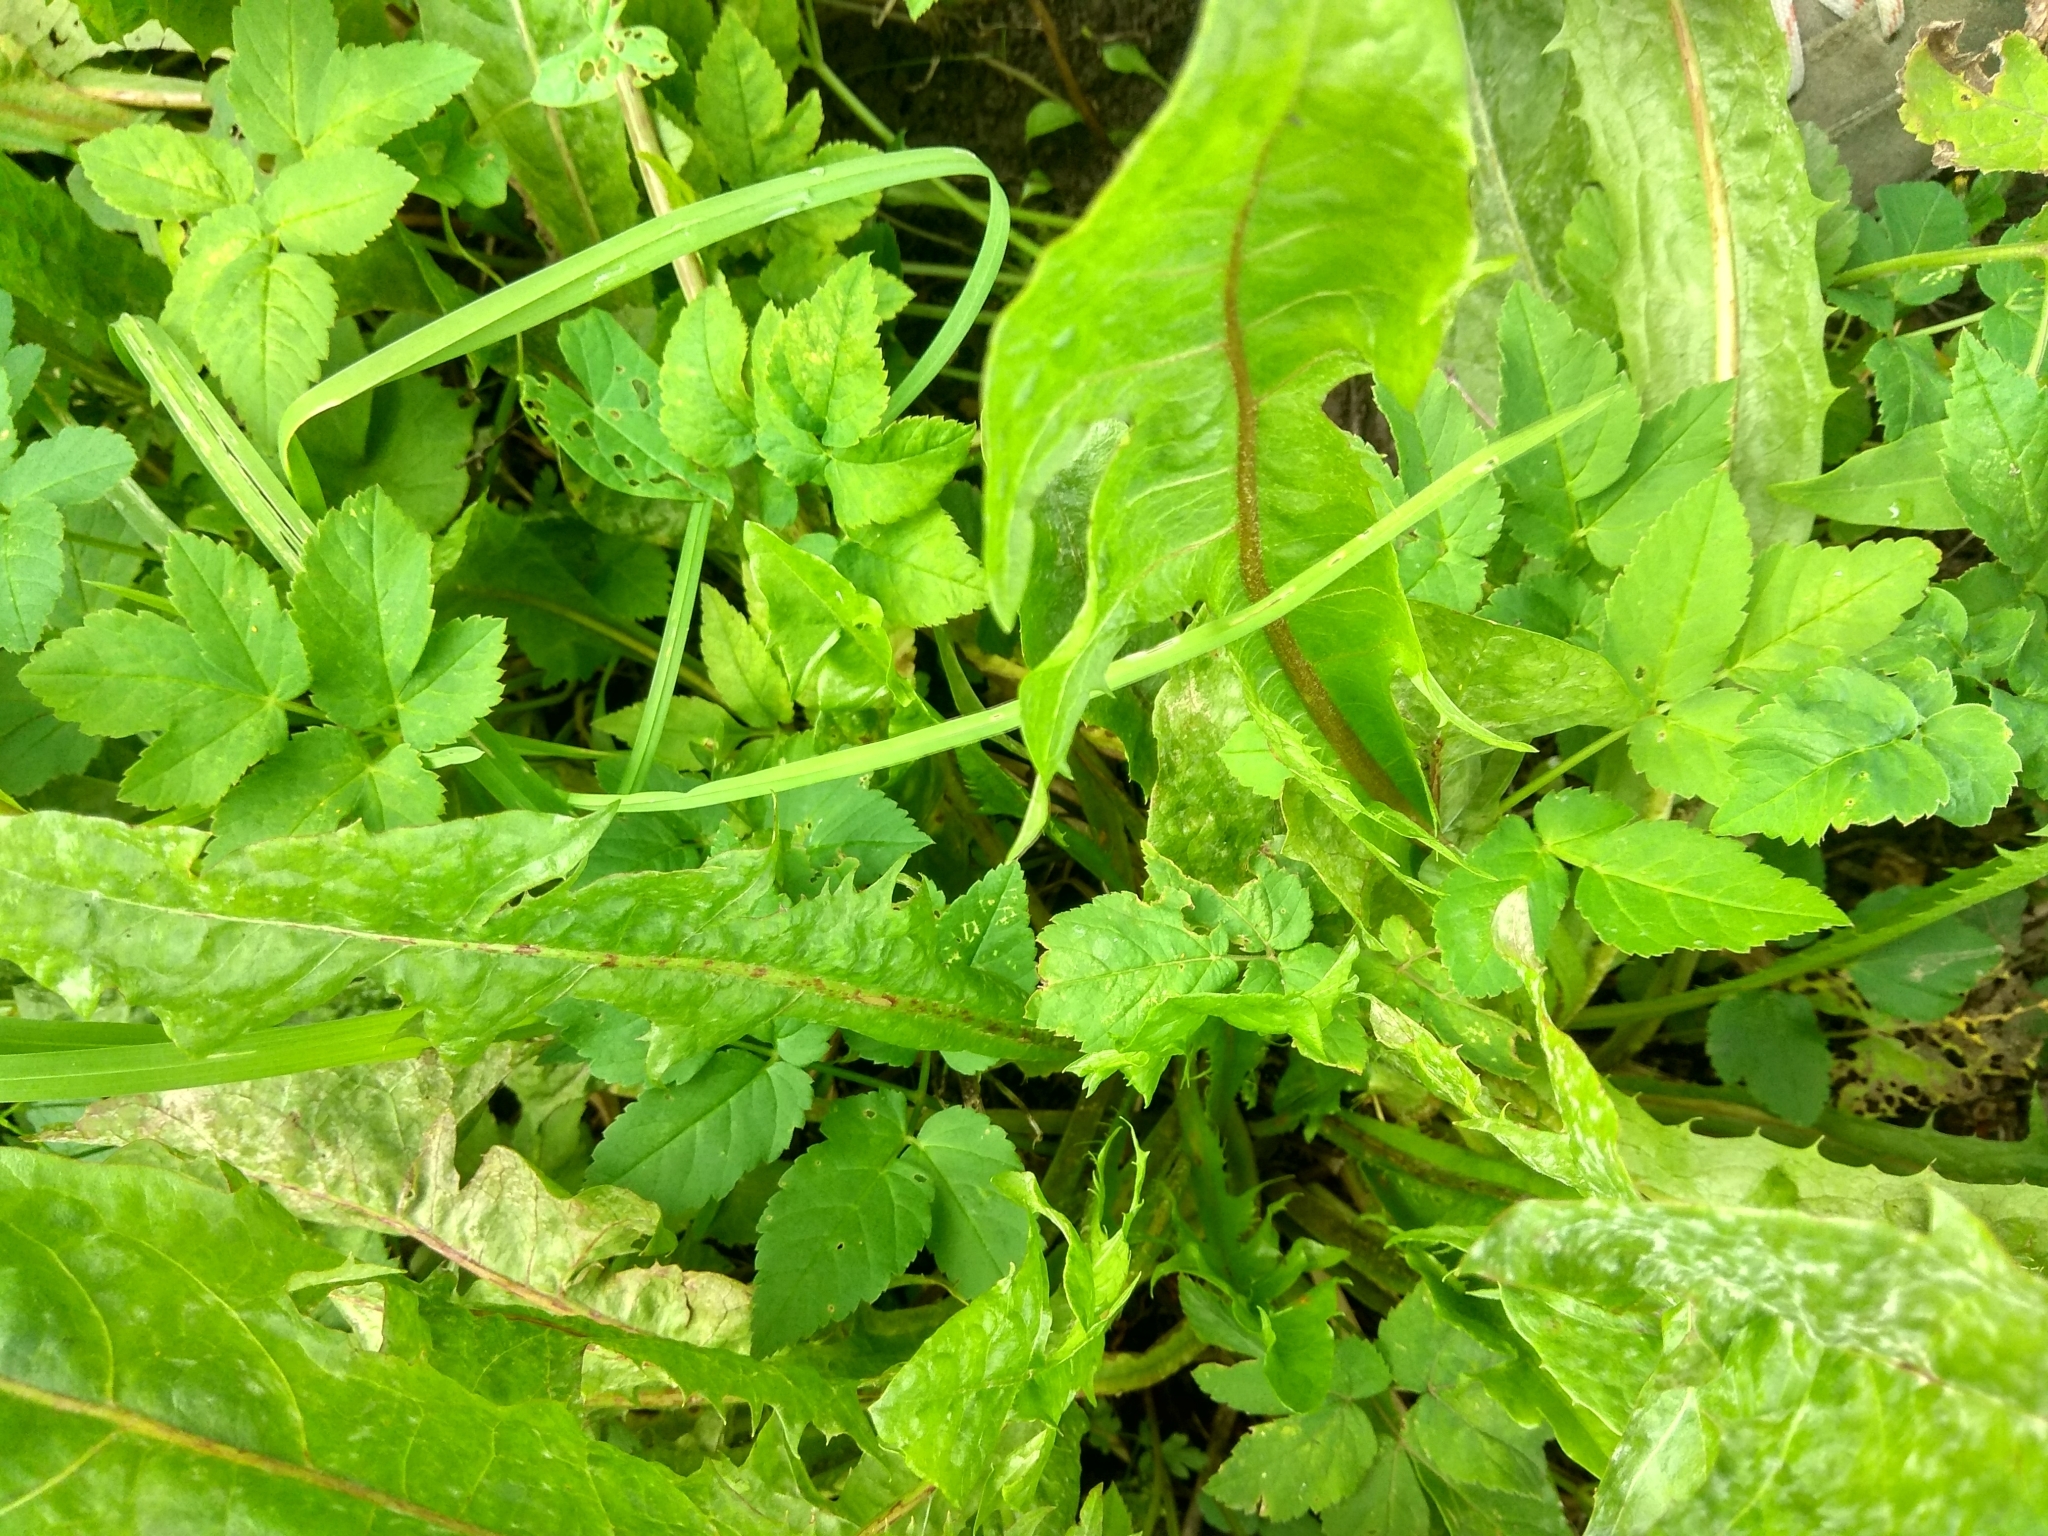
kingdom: Plantae
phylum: Tracheophyta
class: Magnoliopsida
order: Asterales
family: Asteraceae
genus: Taraxacum
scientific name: Taraxacum officinale
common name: Common dandelion
